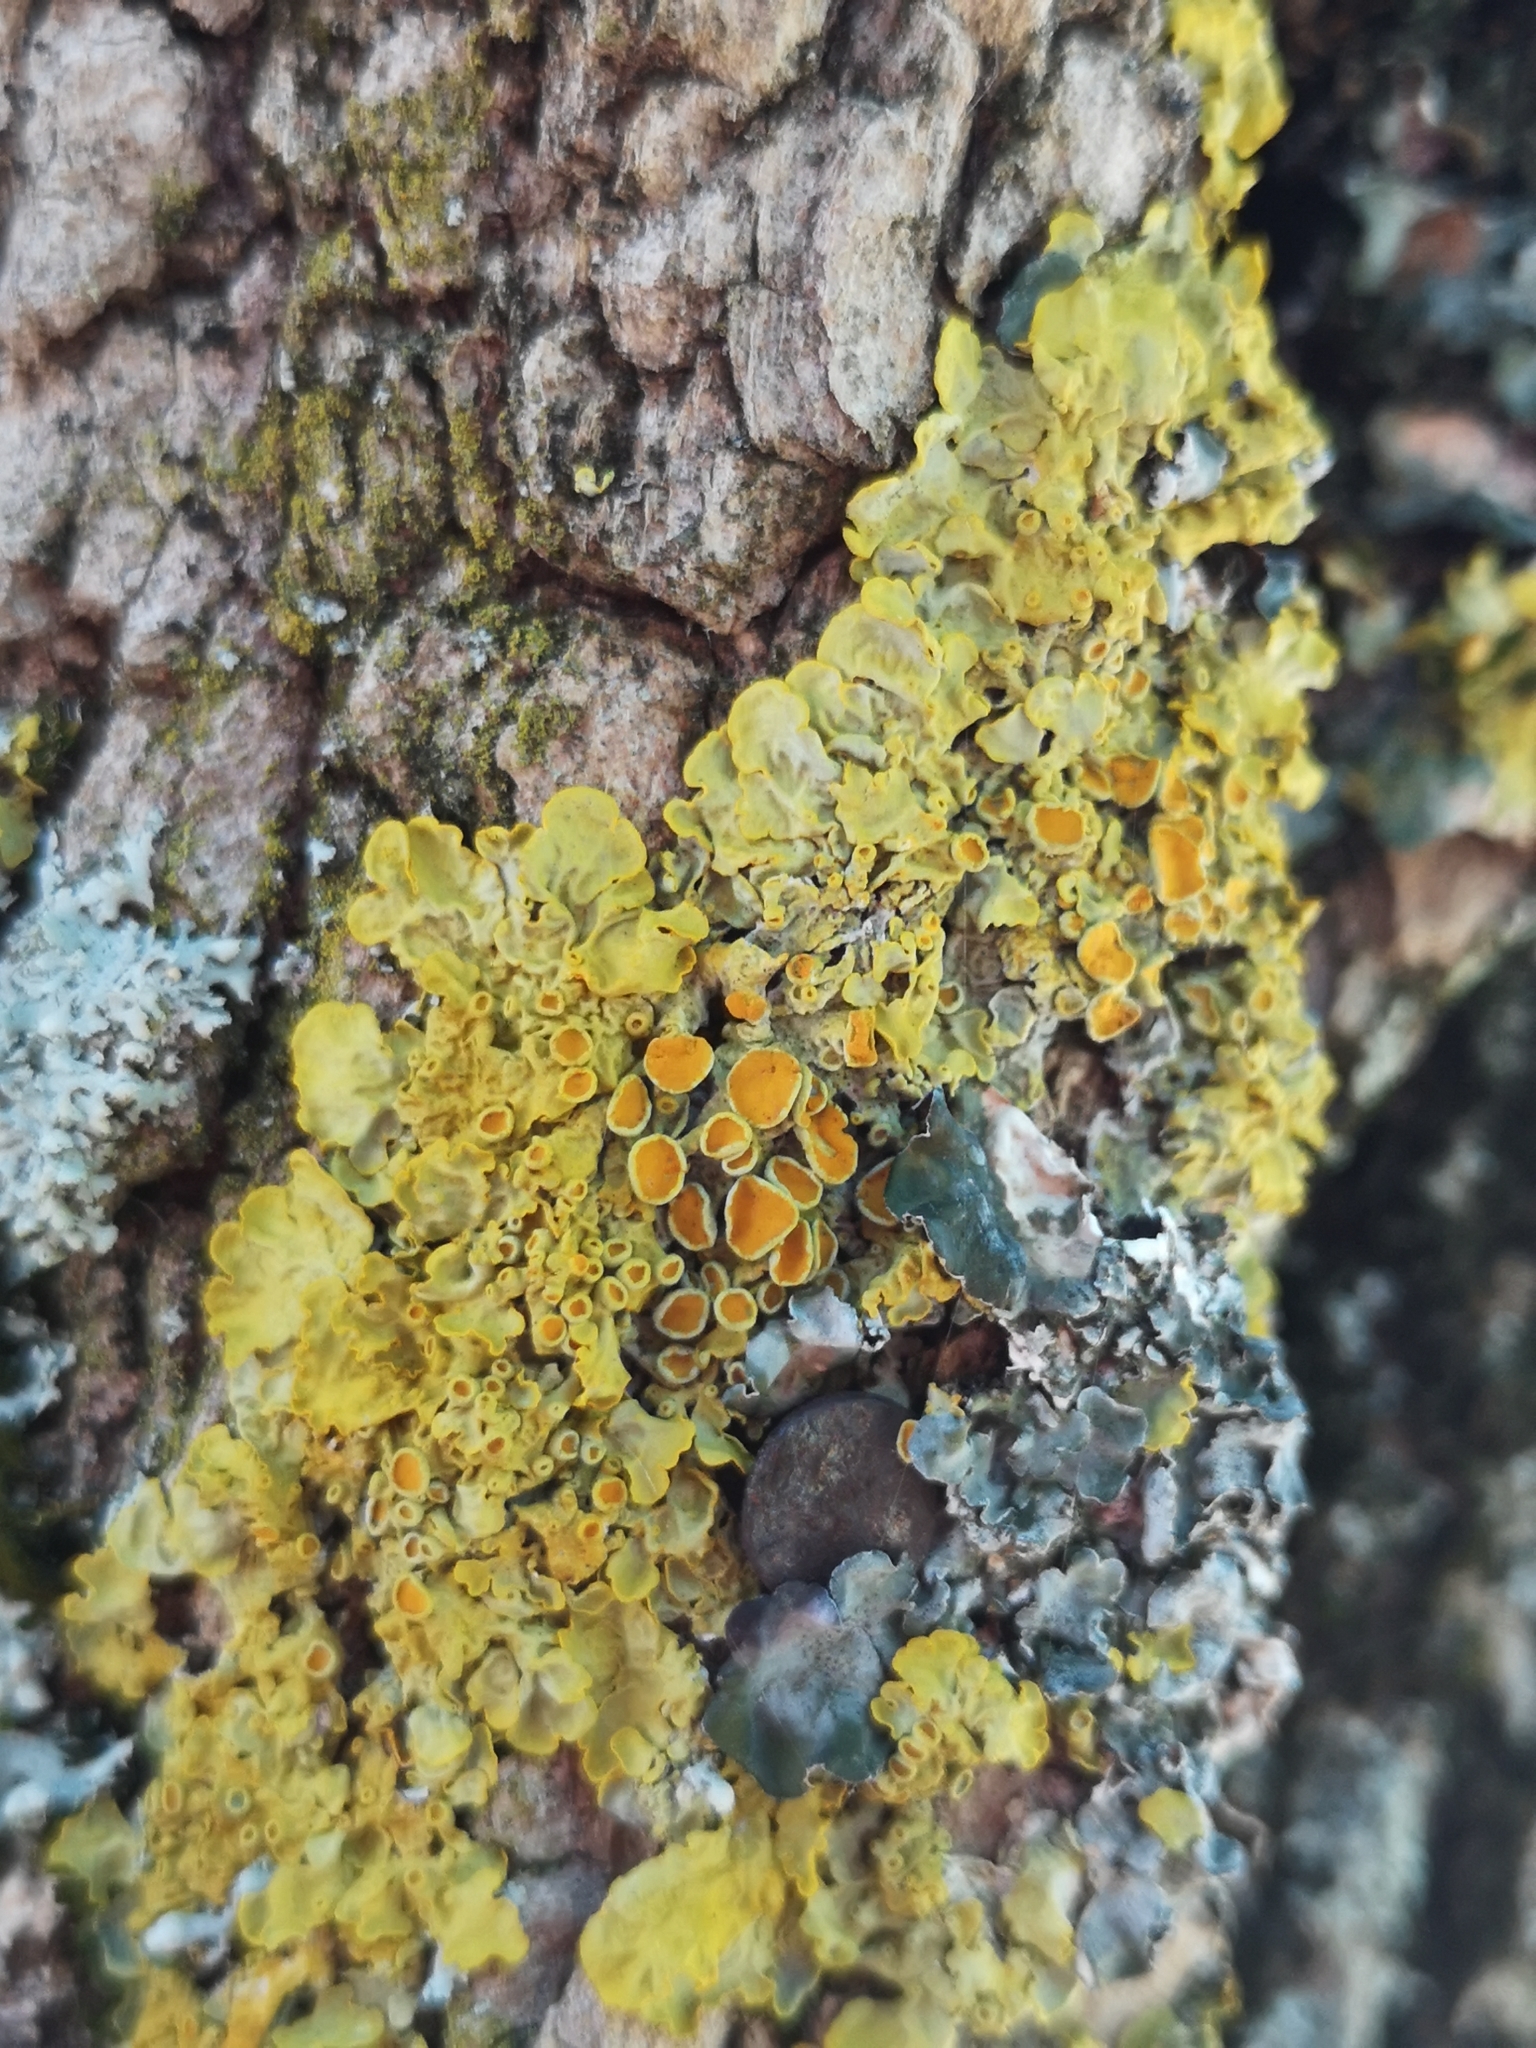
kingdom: Fungi
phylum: Ascomycota
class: Lecanoromycetes
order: Teloschistales
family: Teloschistaceae
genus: Xanthoria
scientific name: Xanthoria parietina
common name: Common orange lichen
